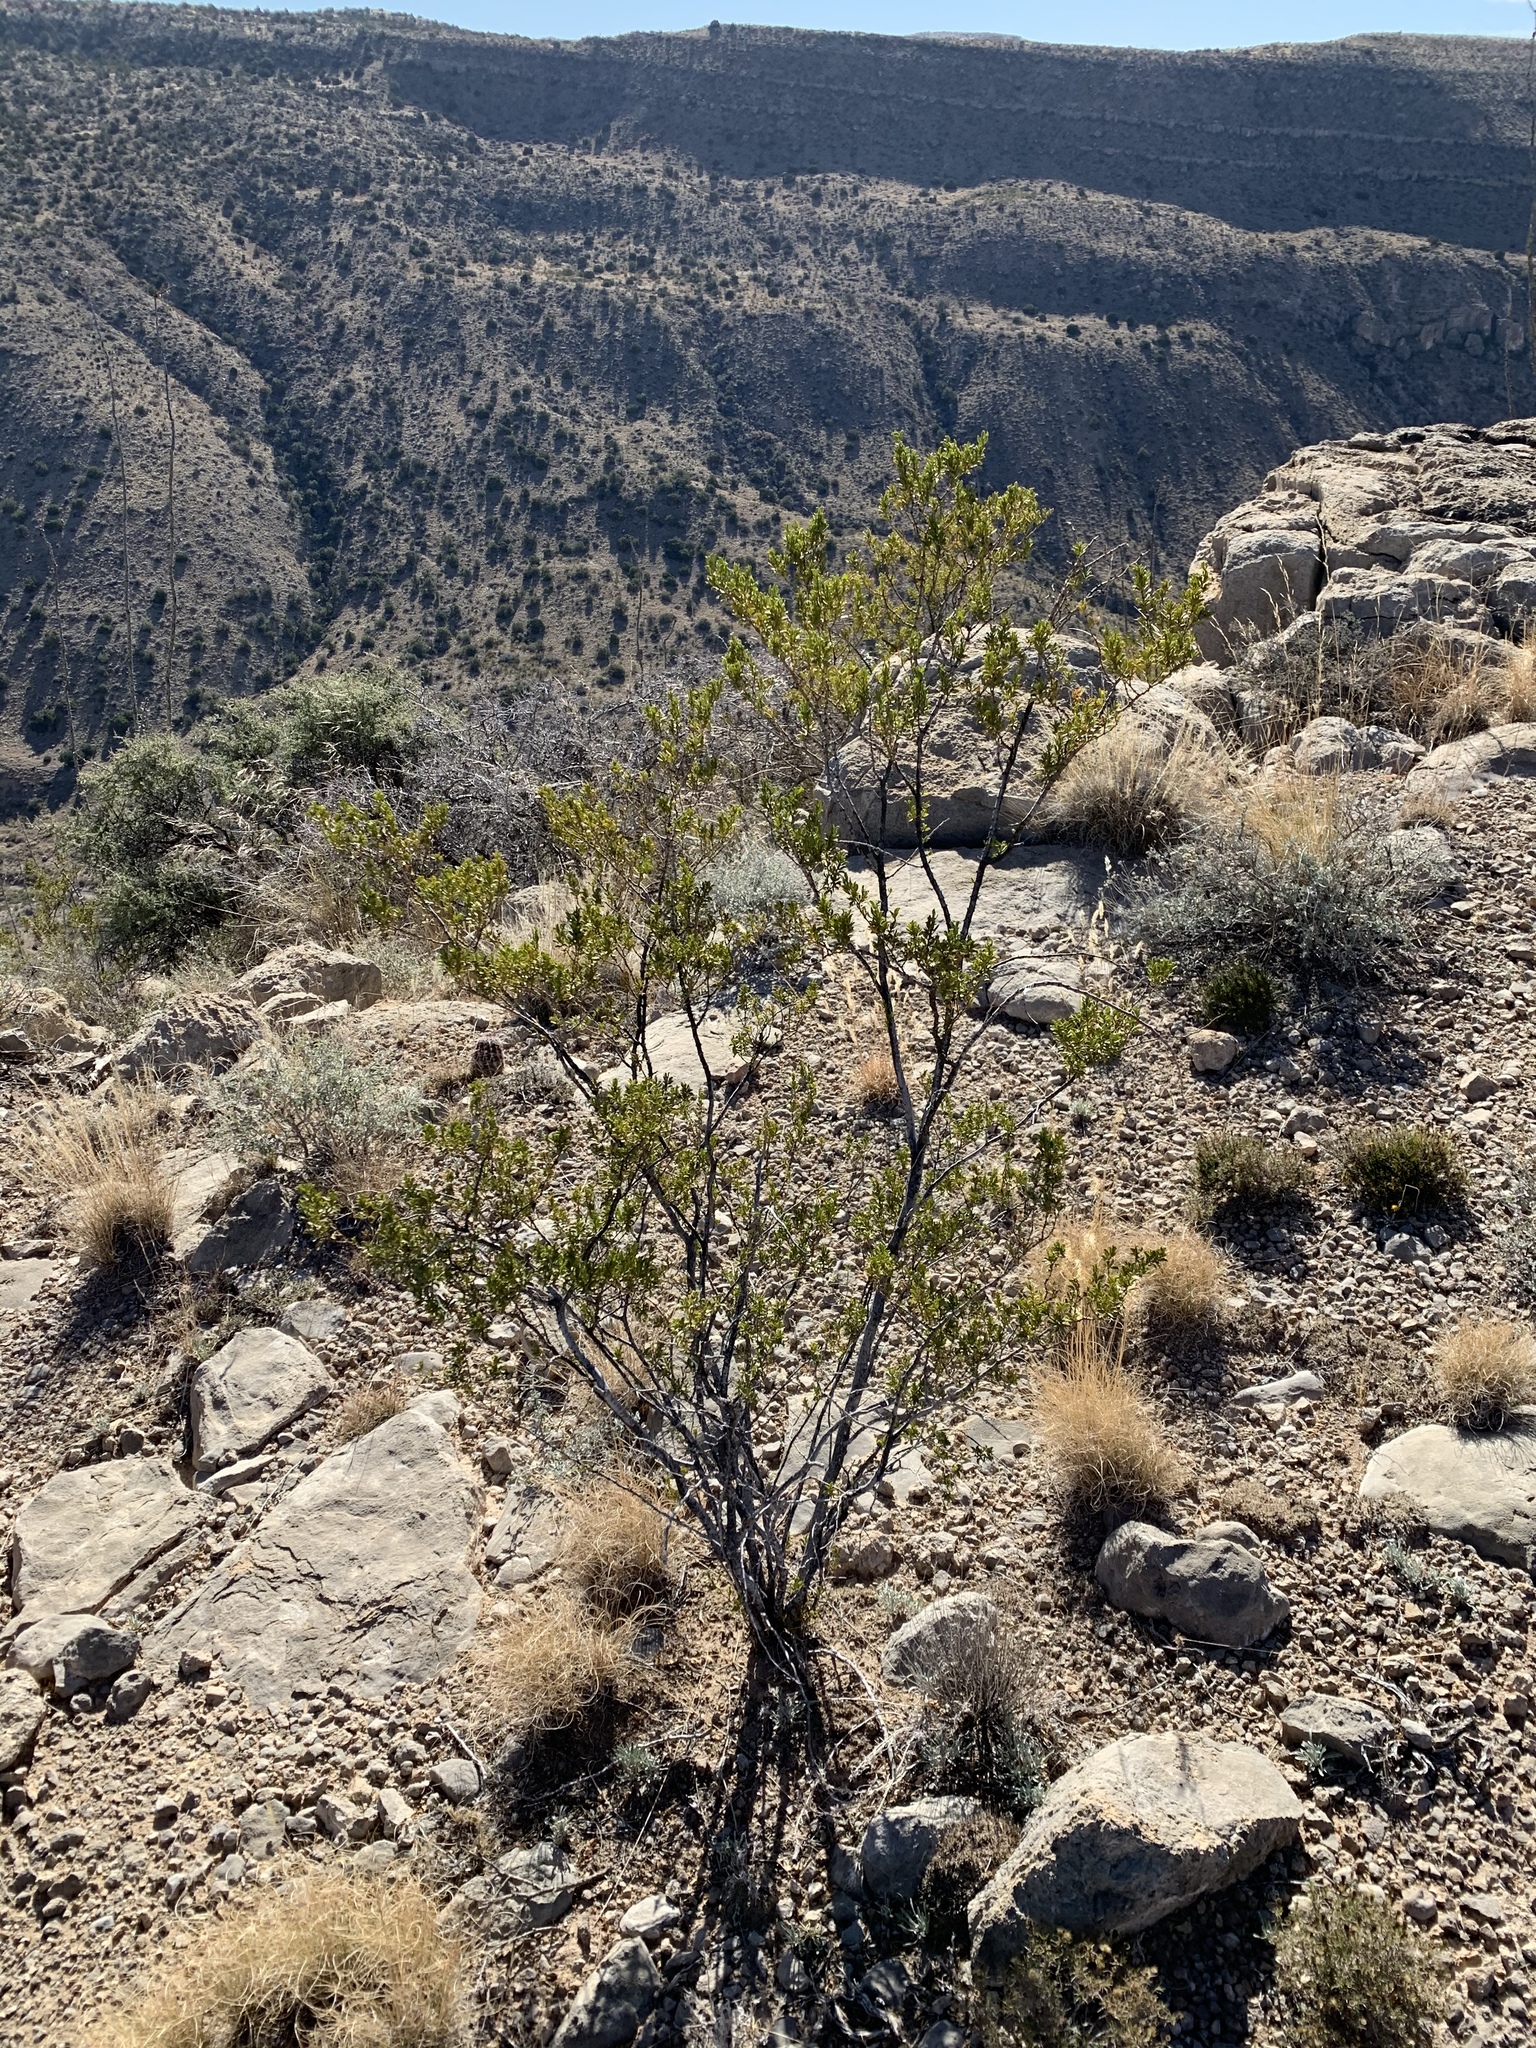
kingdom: Plantae
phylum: Tracheophyta
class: Magnoliopsida
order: Zygophyllales
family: Zygophyllaceae
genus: Larrea
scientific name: Larrea tridentata
